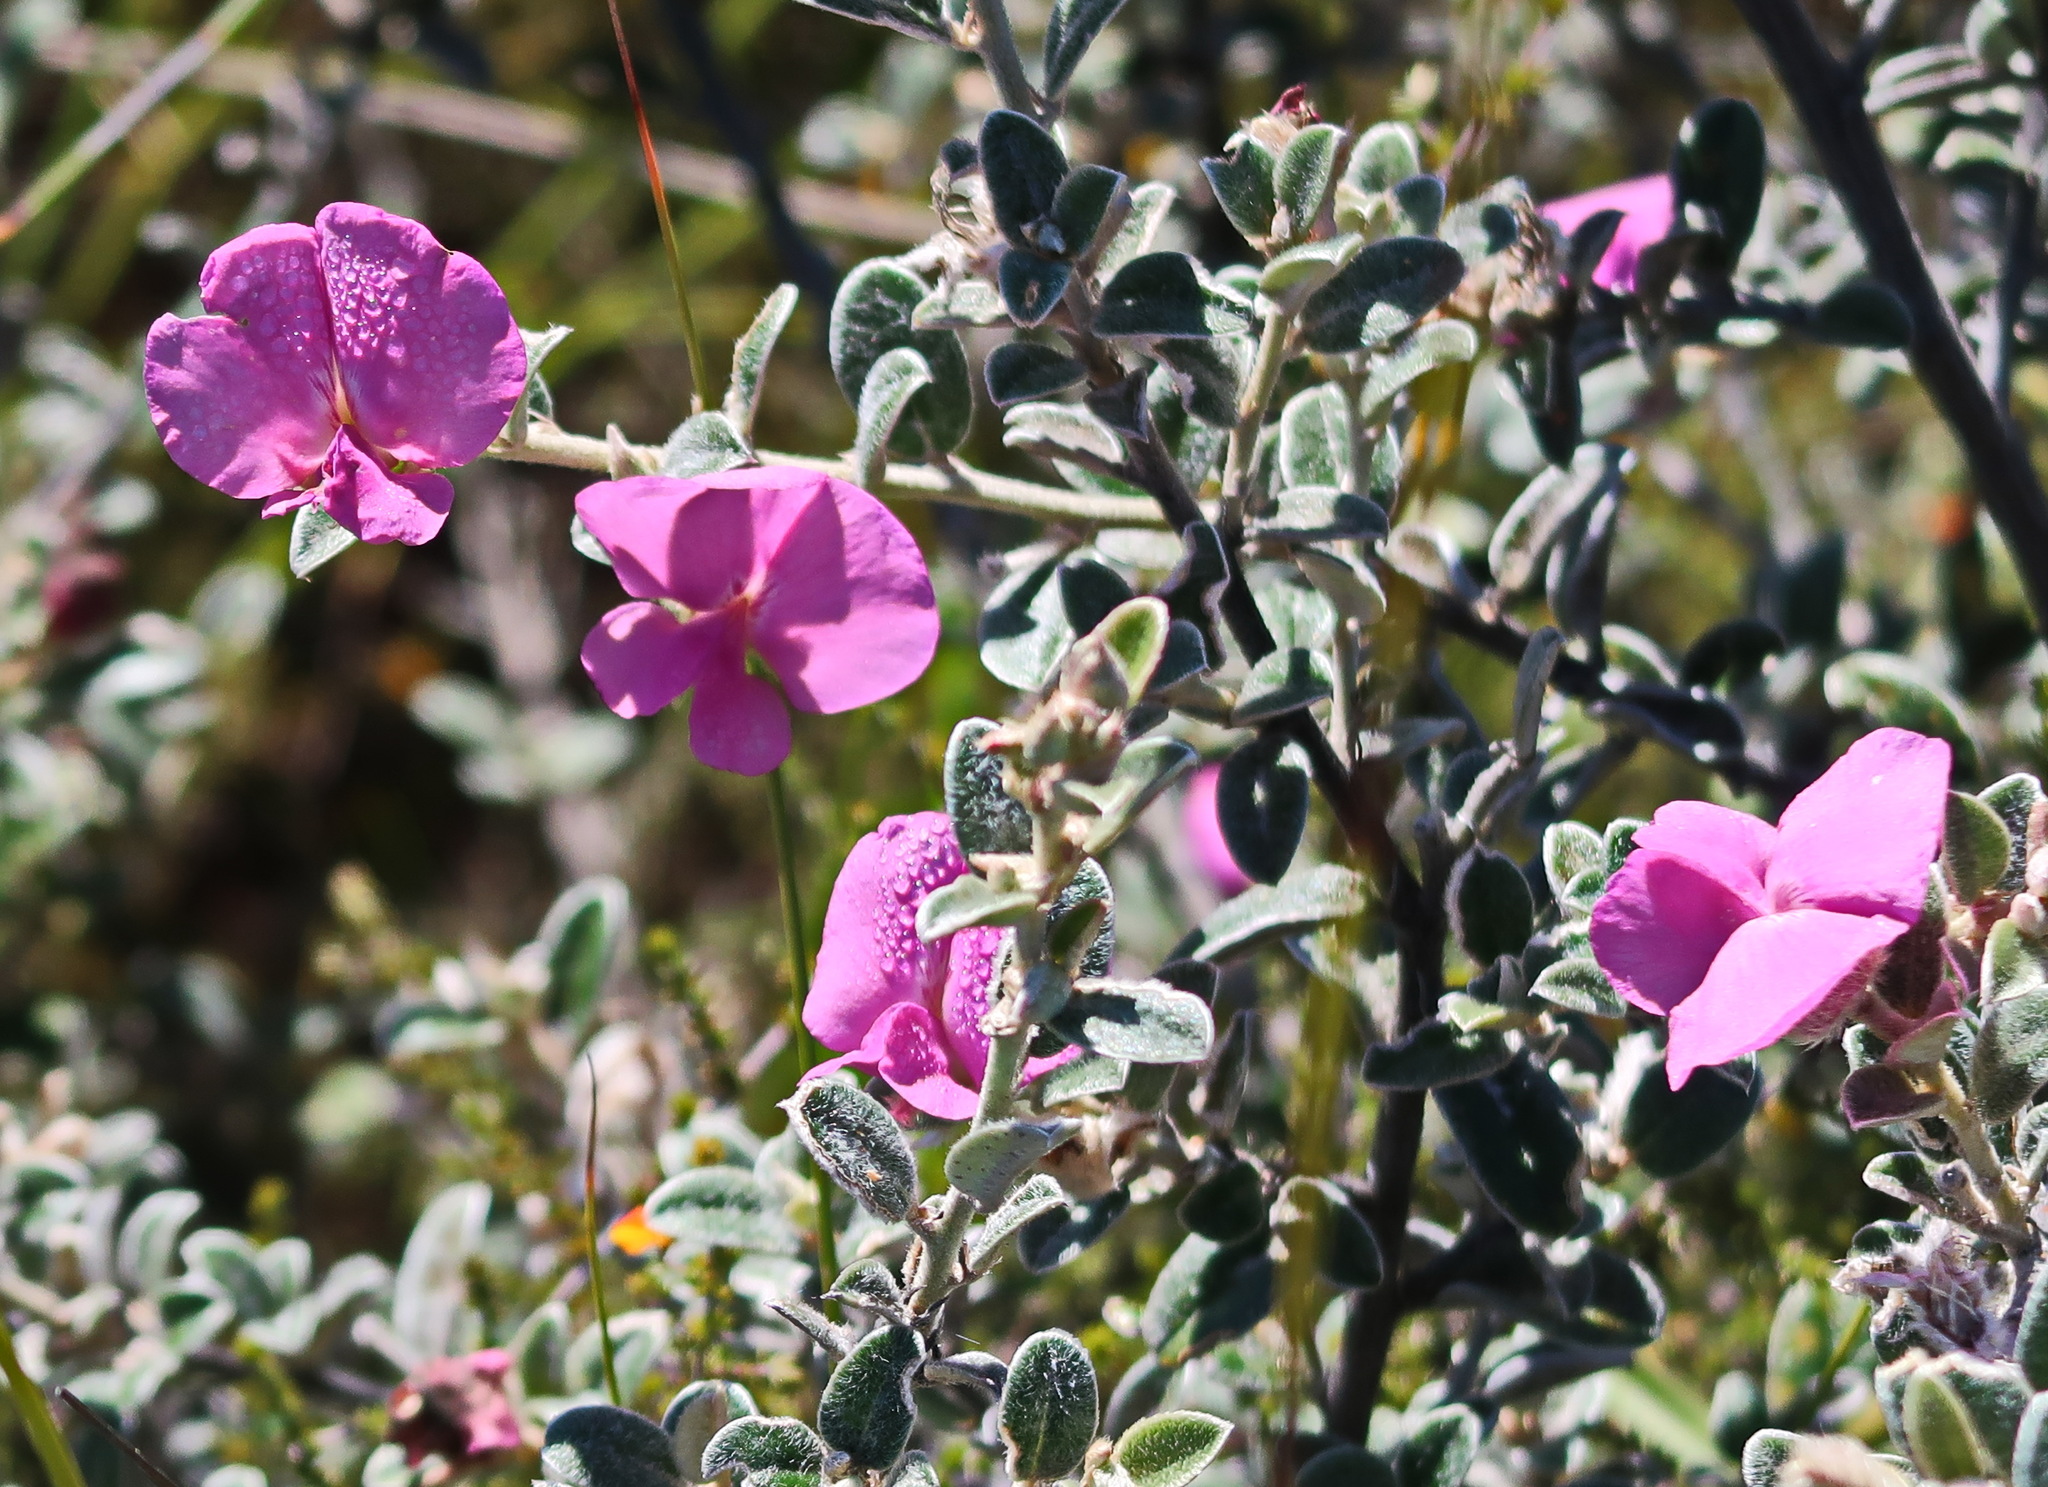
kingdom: Plantae
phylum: Tracheophyta
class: Magnoliopsida
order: Fabales
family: Fabaceae
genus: Podalyria
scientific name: Podalyria burchellii
